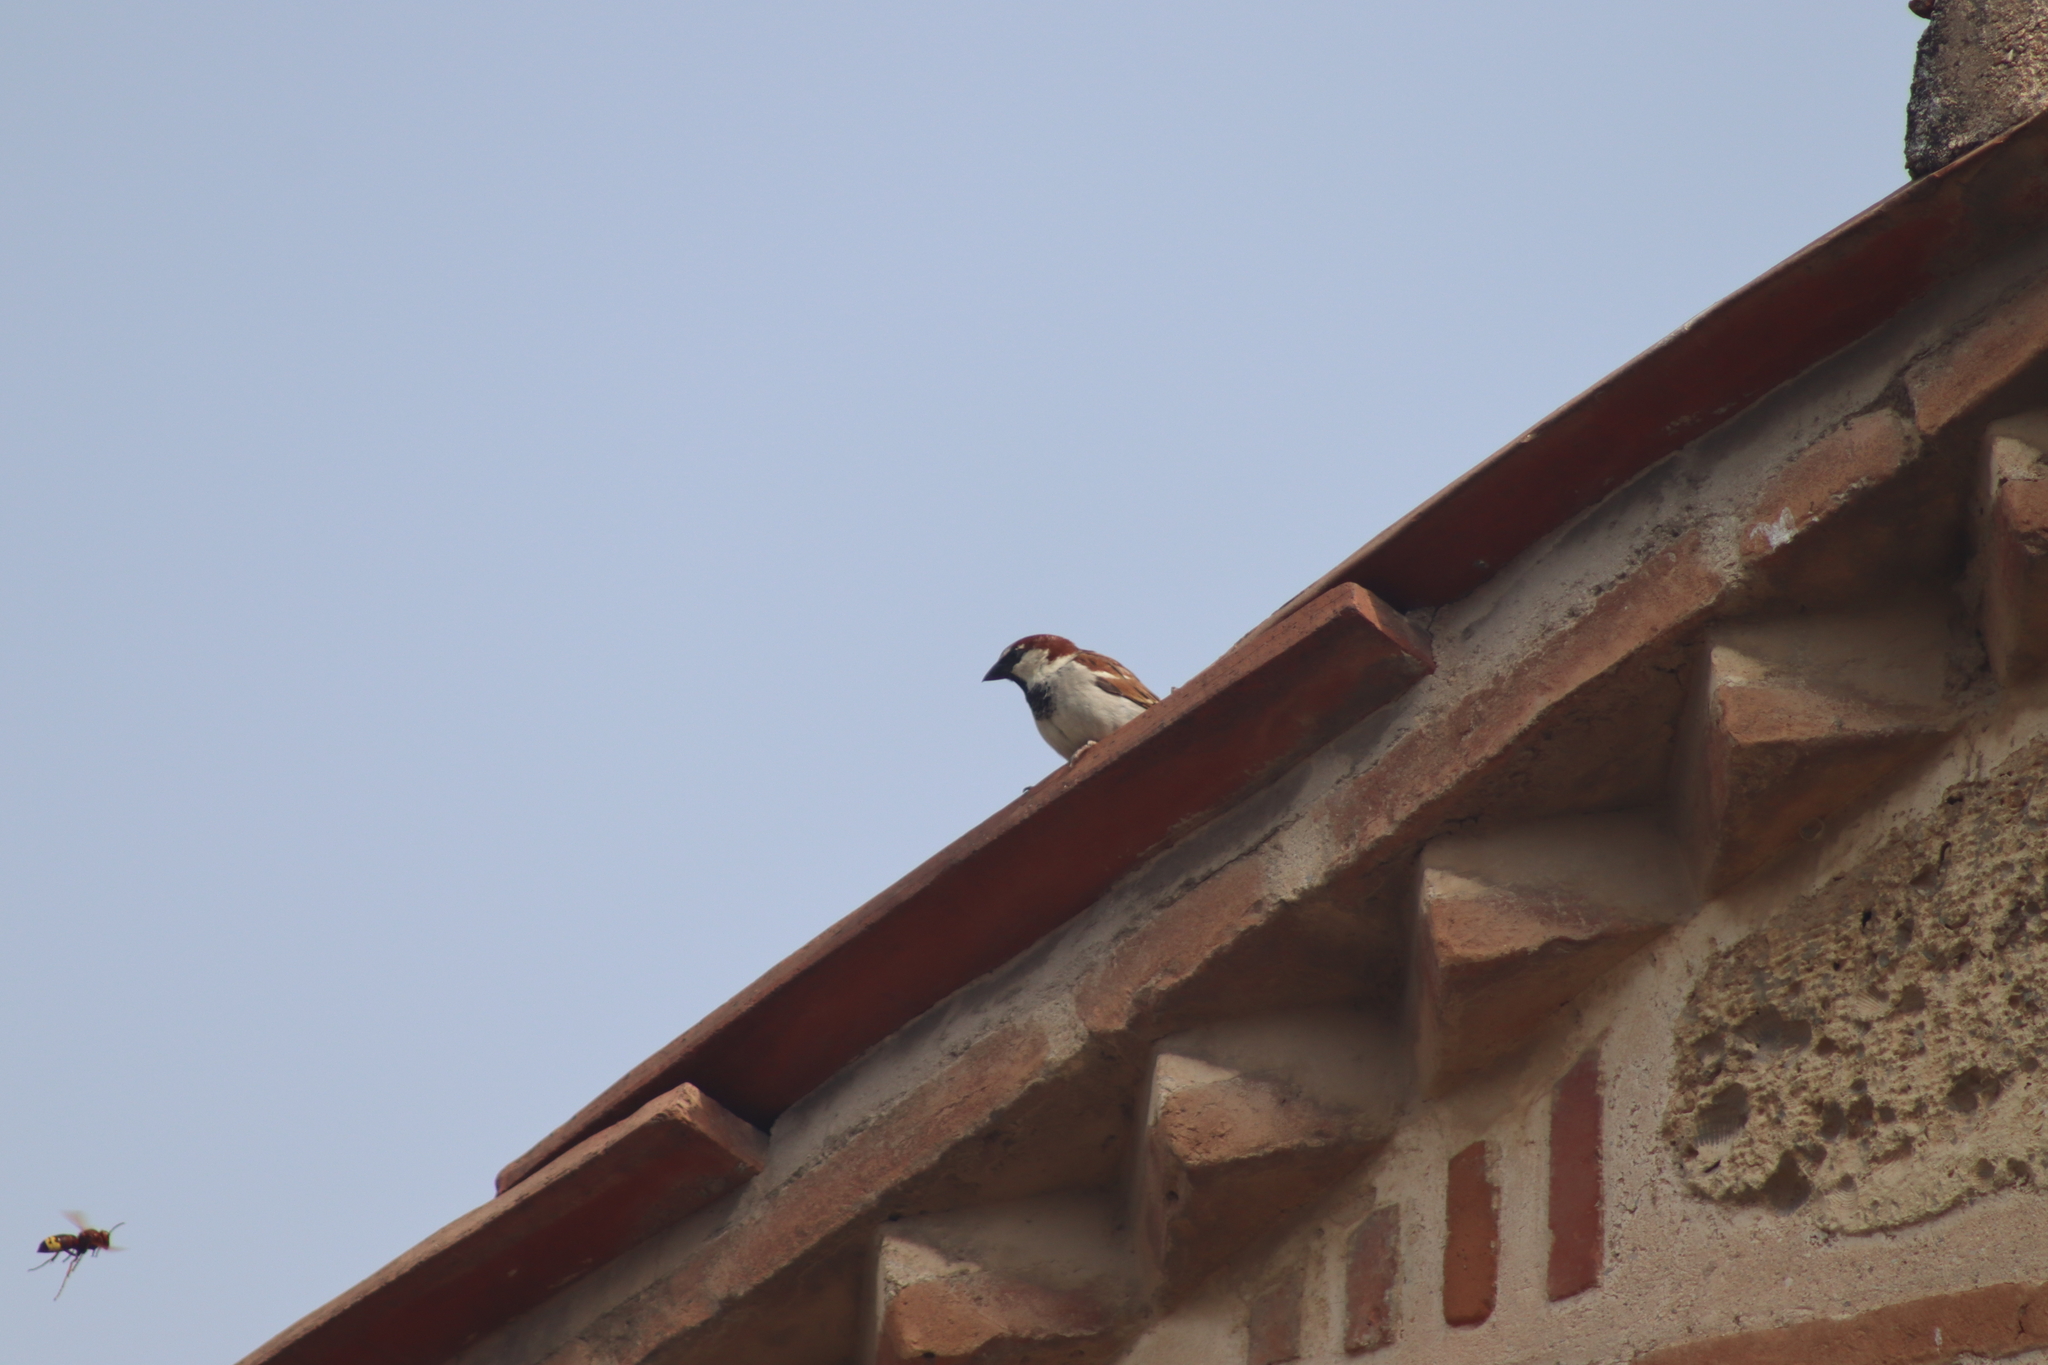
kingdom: Animalia
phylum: Chordata
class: Aves
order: Passeriformes
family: Passeridae
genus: Passer
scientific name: Passer domesticus
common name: House sparrow
